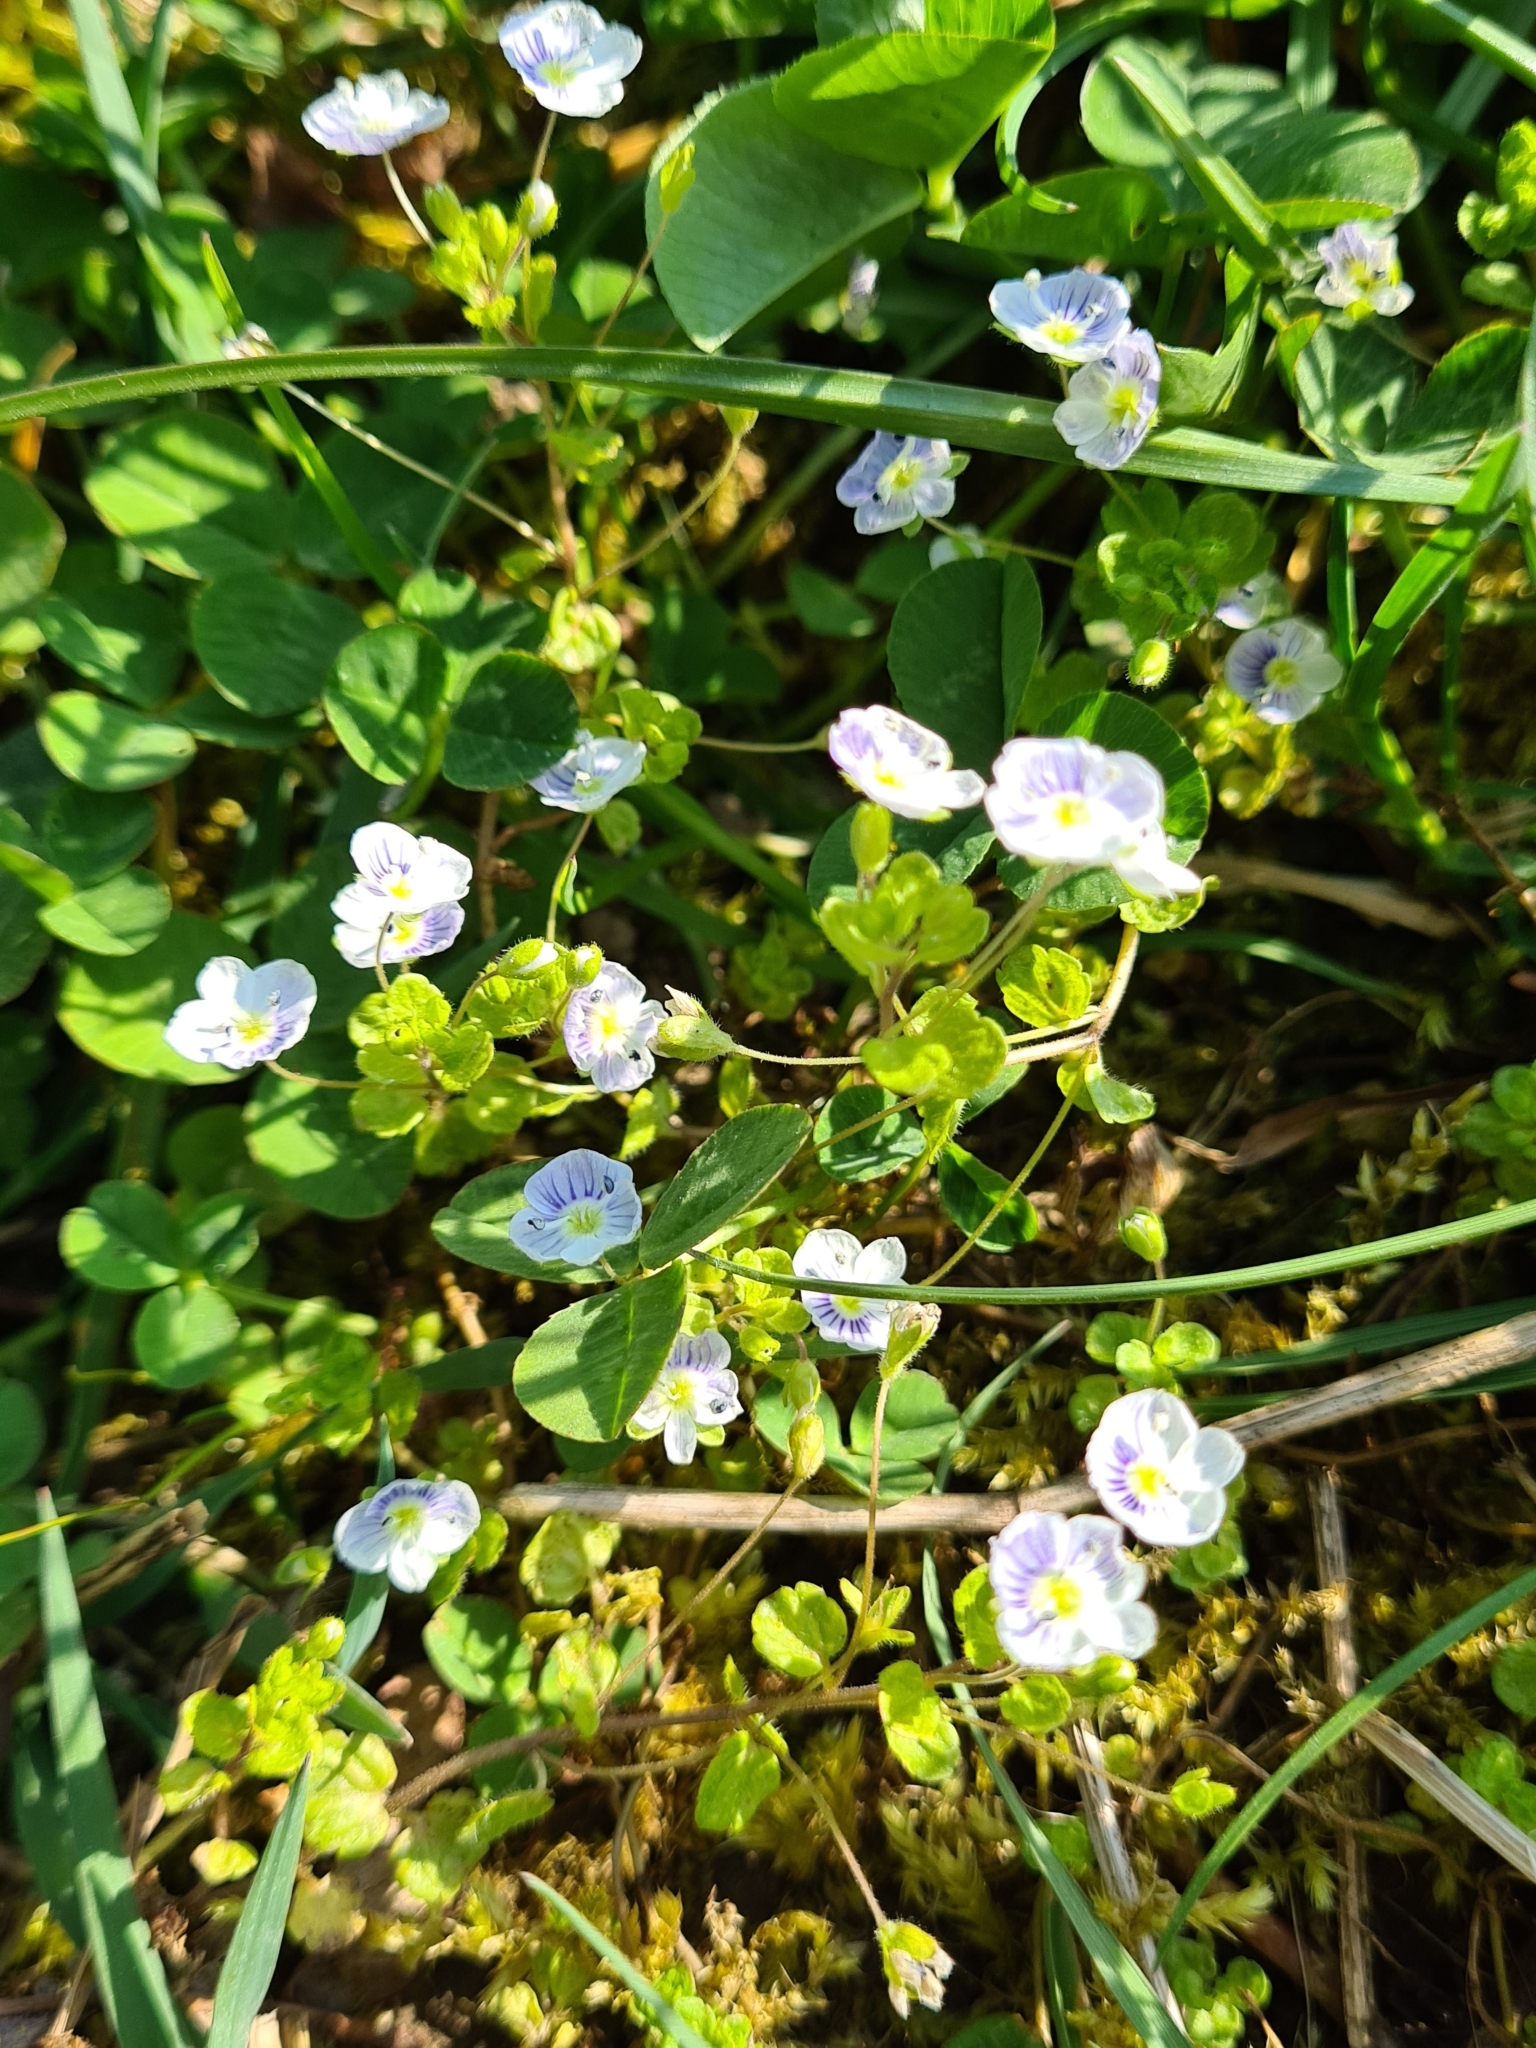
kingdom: Plantae
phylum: Tracheophyta
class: Magnoliopsida
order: Lamiales
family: Plantaginaceae
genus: Veronica
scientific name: Veronica filiformis
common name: Slender speedwell
